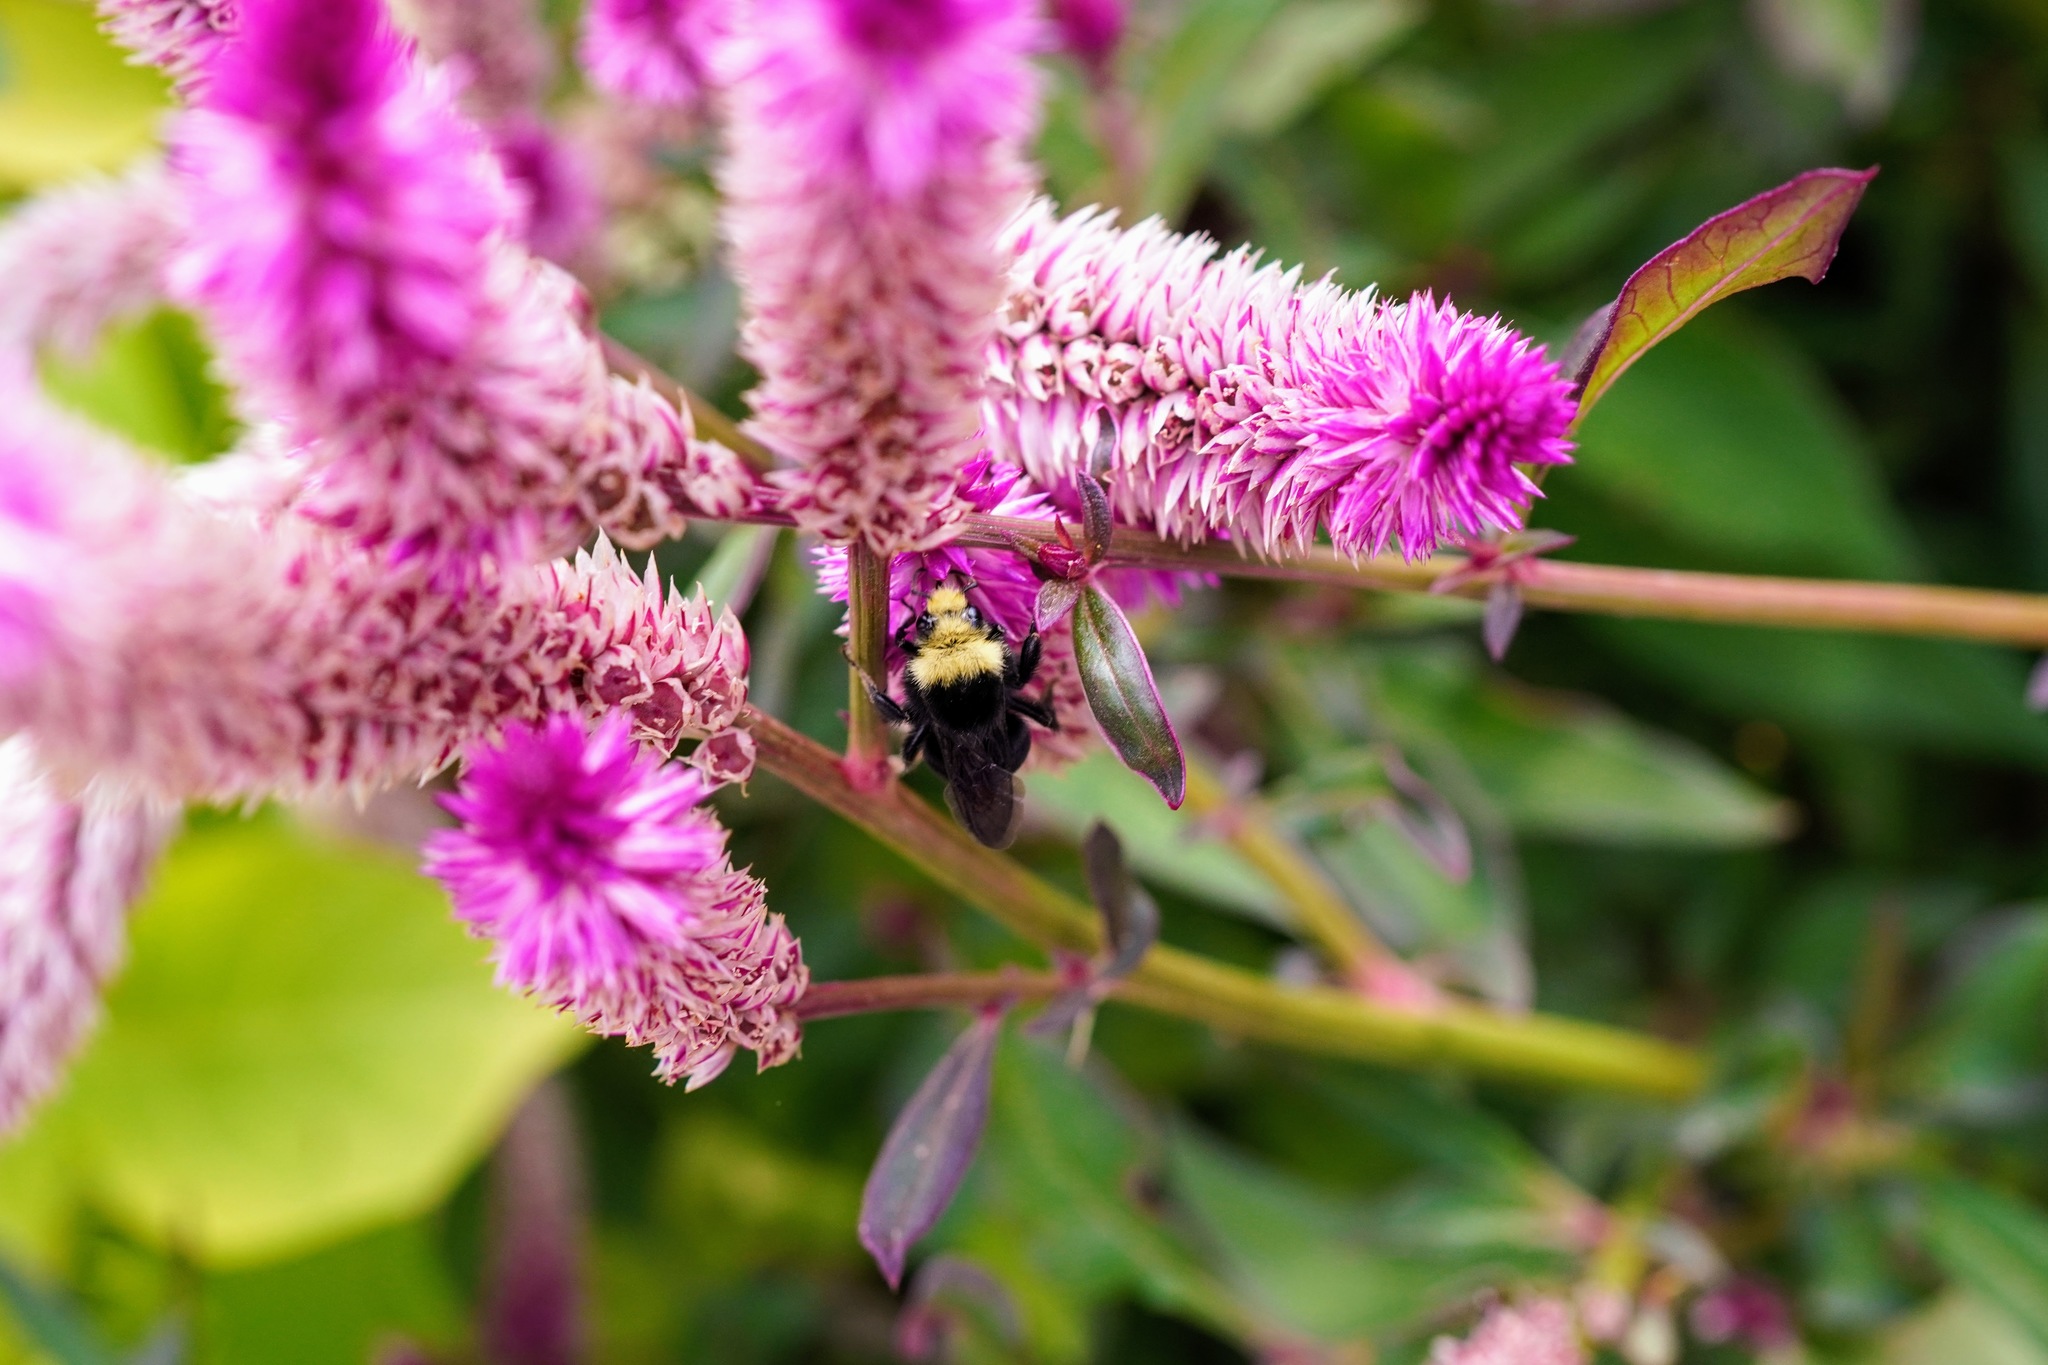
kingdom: Animalia
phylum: Arthropoda
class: Insecta
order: Hymenoptera
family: Apidae
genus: Bombus
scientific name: Bombus vosnesenskii
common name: Vosnesensky bumble bee
